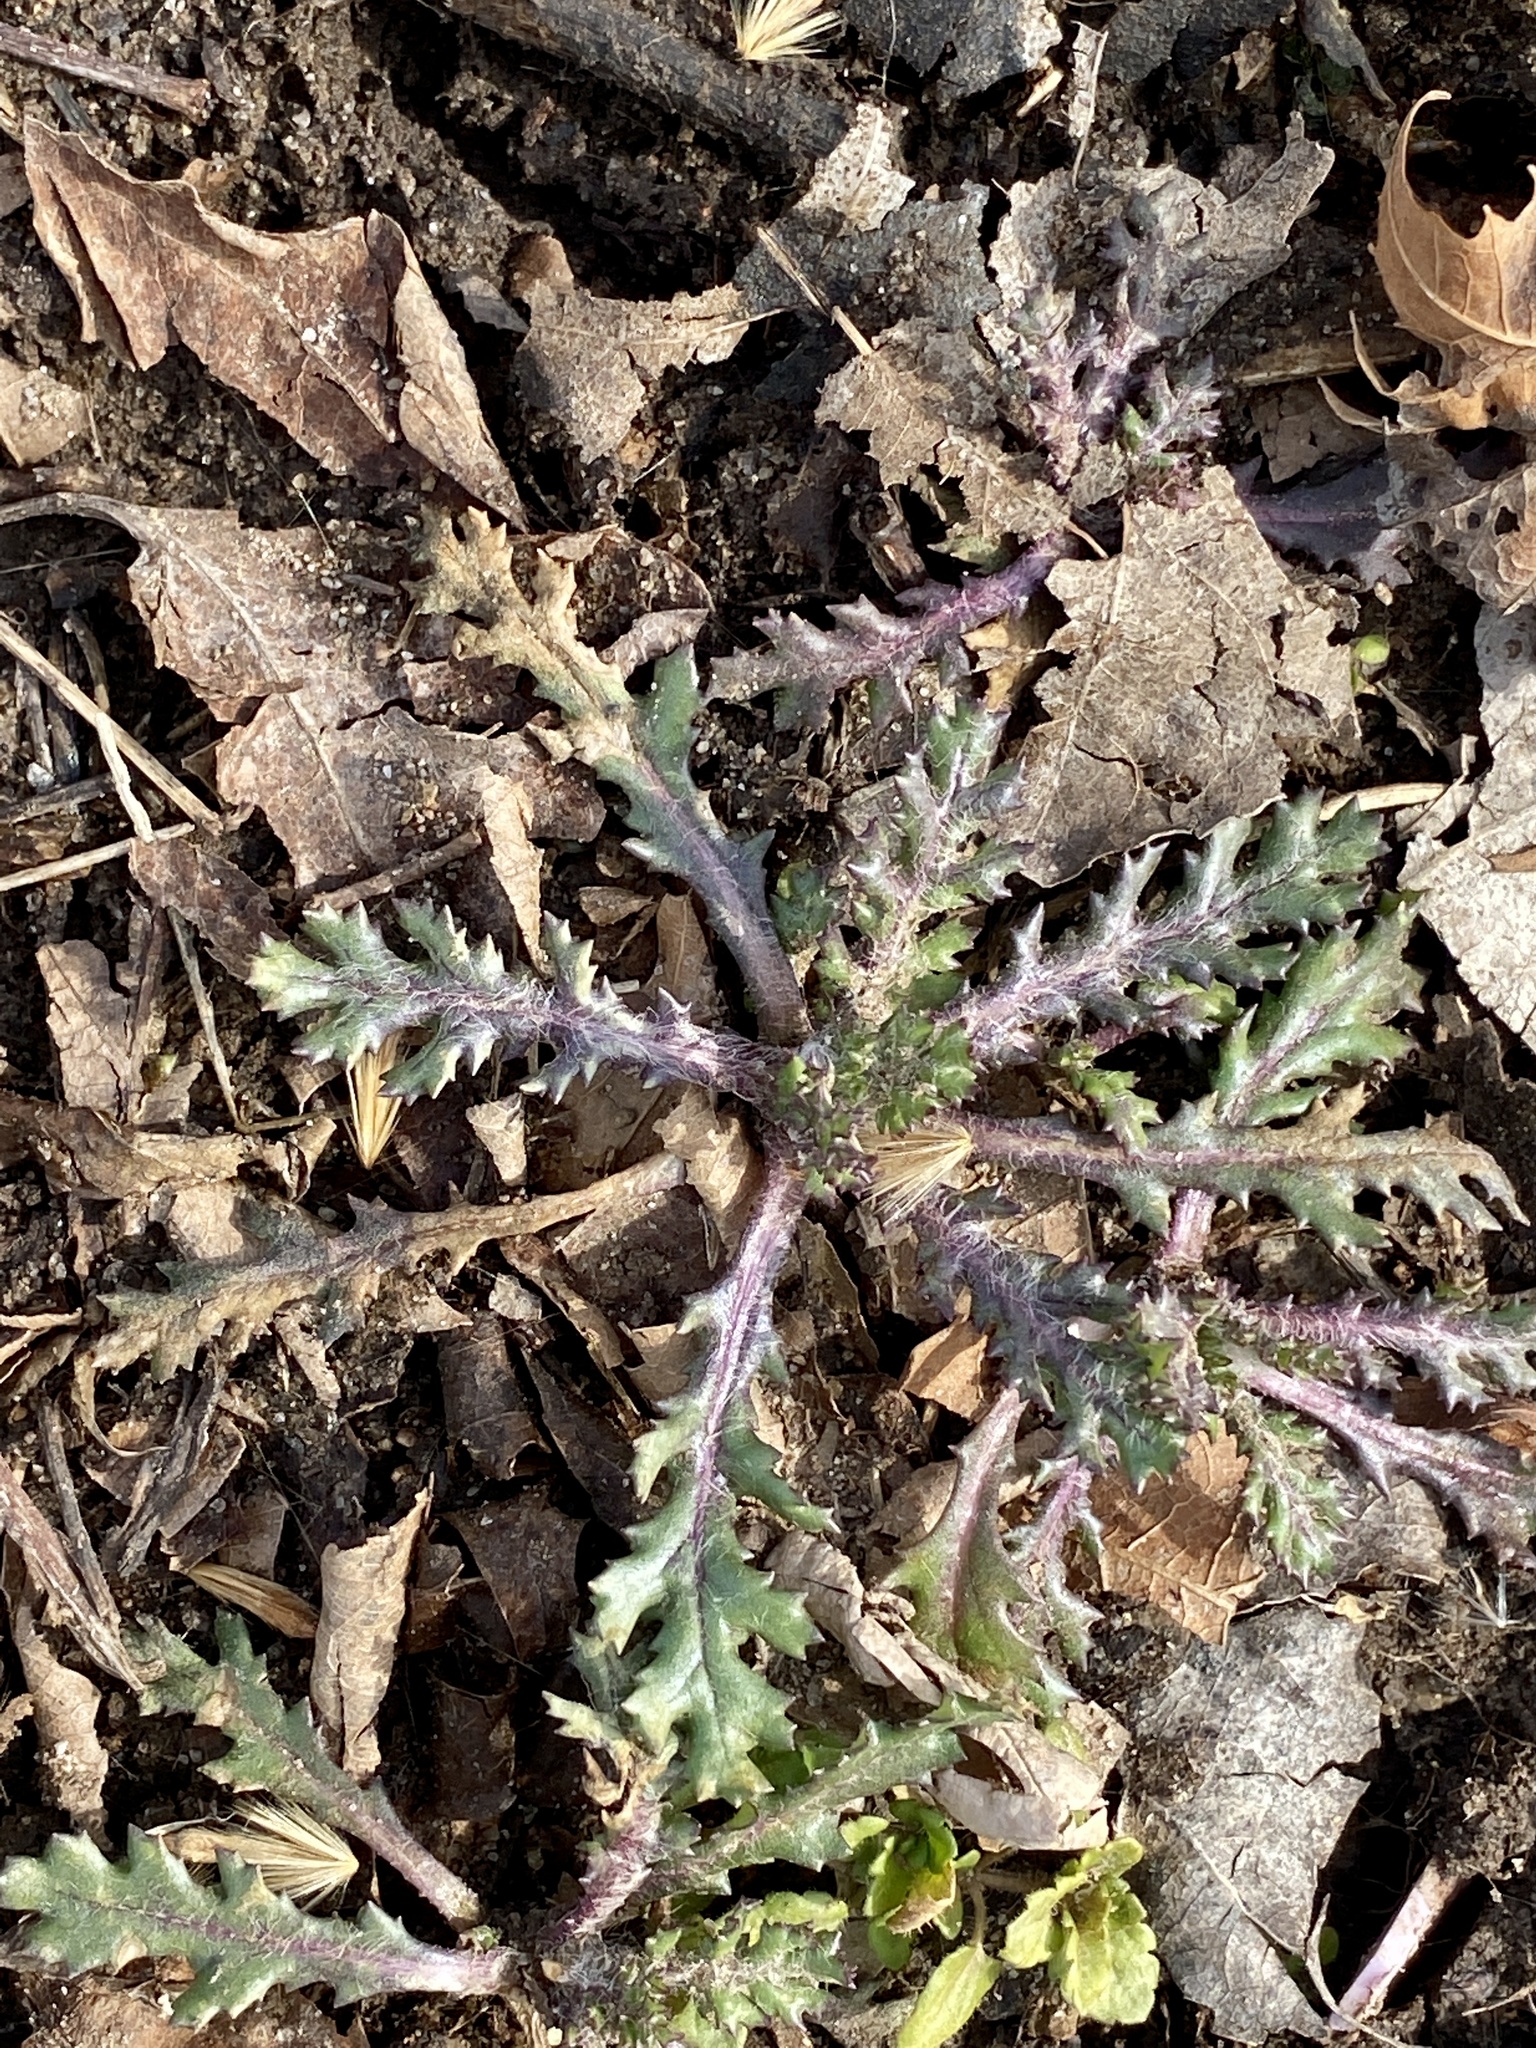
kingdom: Plantae
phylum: Tracheophyta
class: Magnoliopsida
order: Asterales
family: Asteraceae
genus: Senecio
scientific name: Senecio vulgaris
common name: Old-man-in-the-spring
